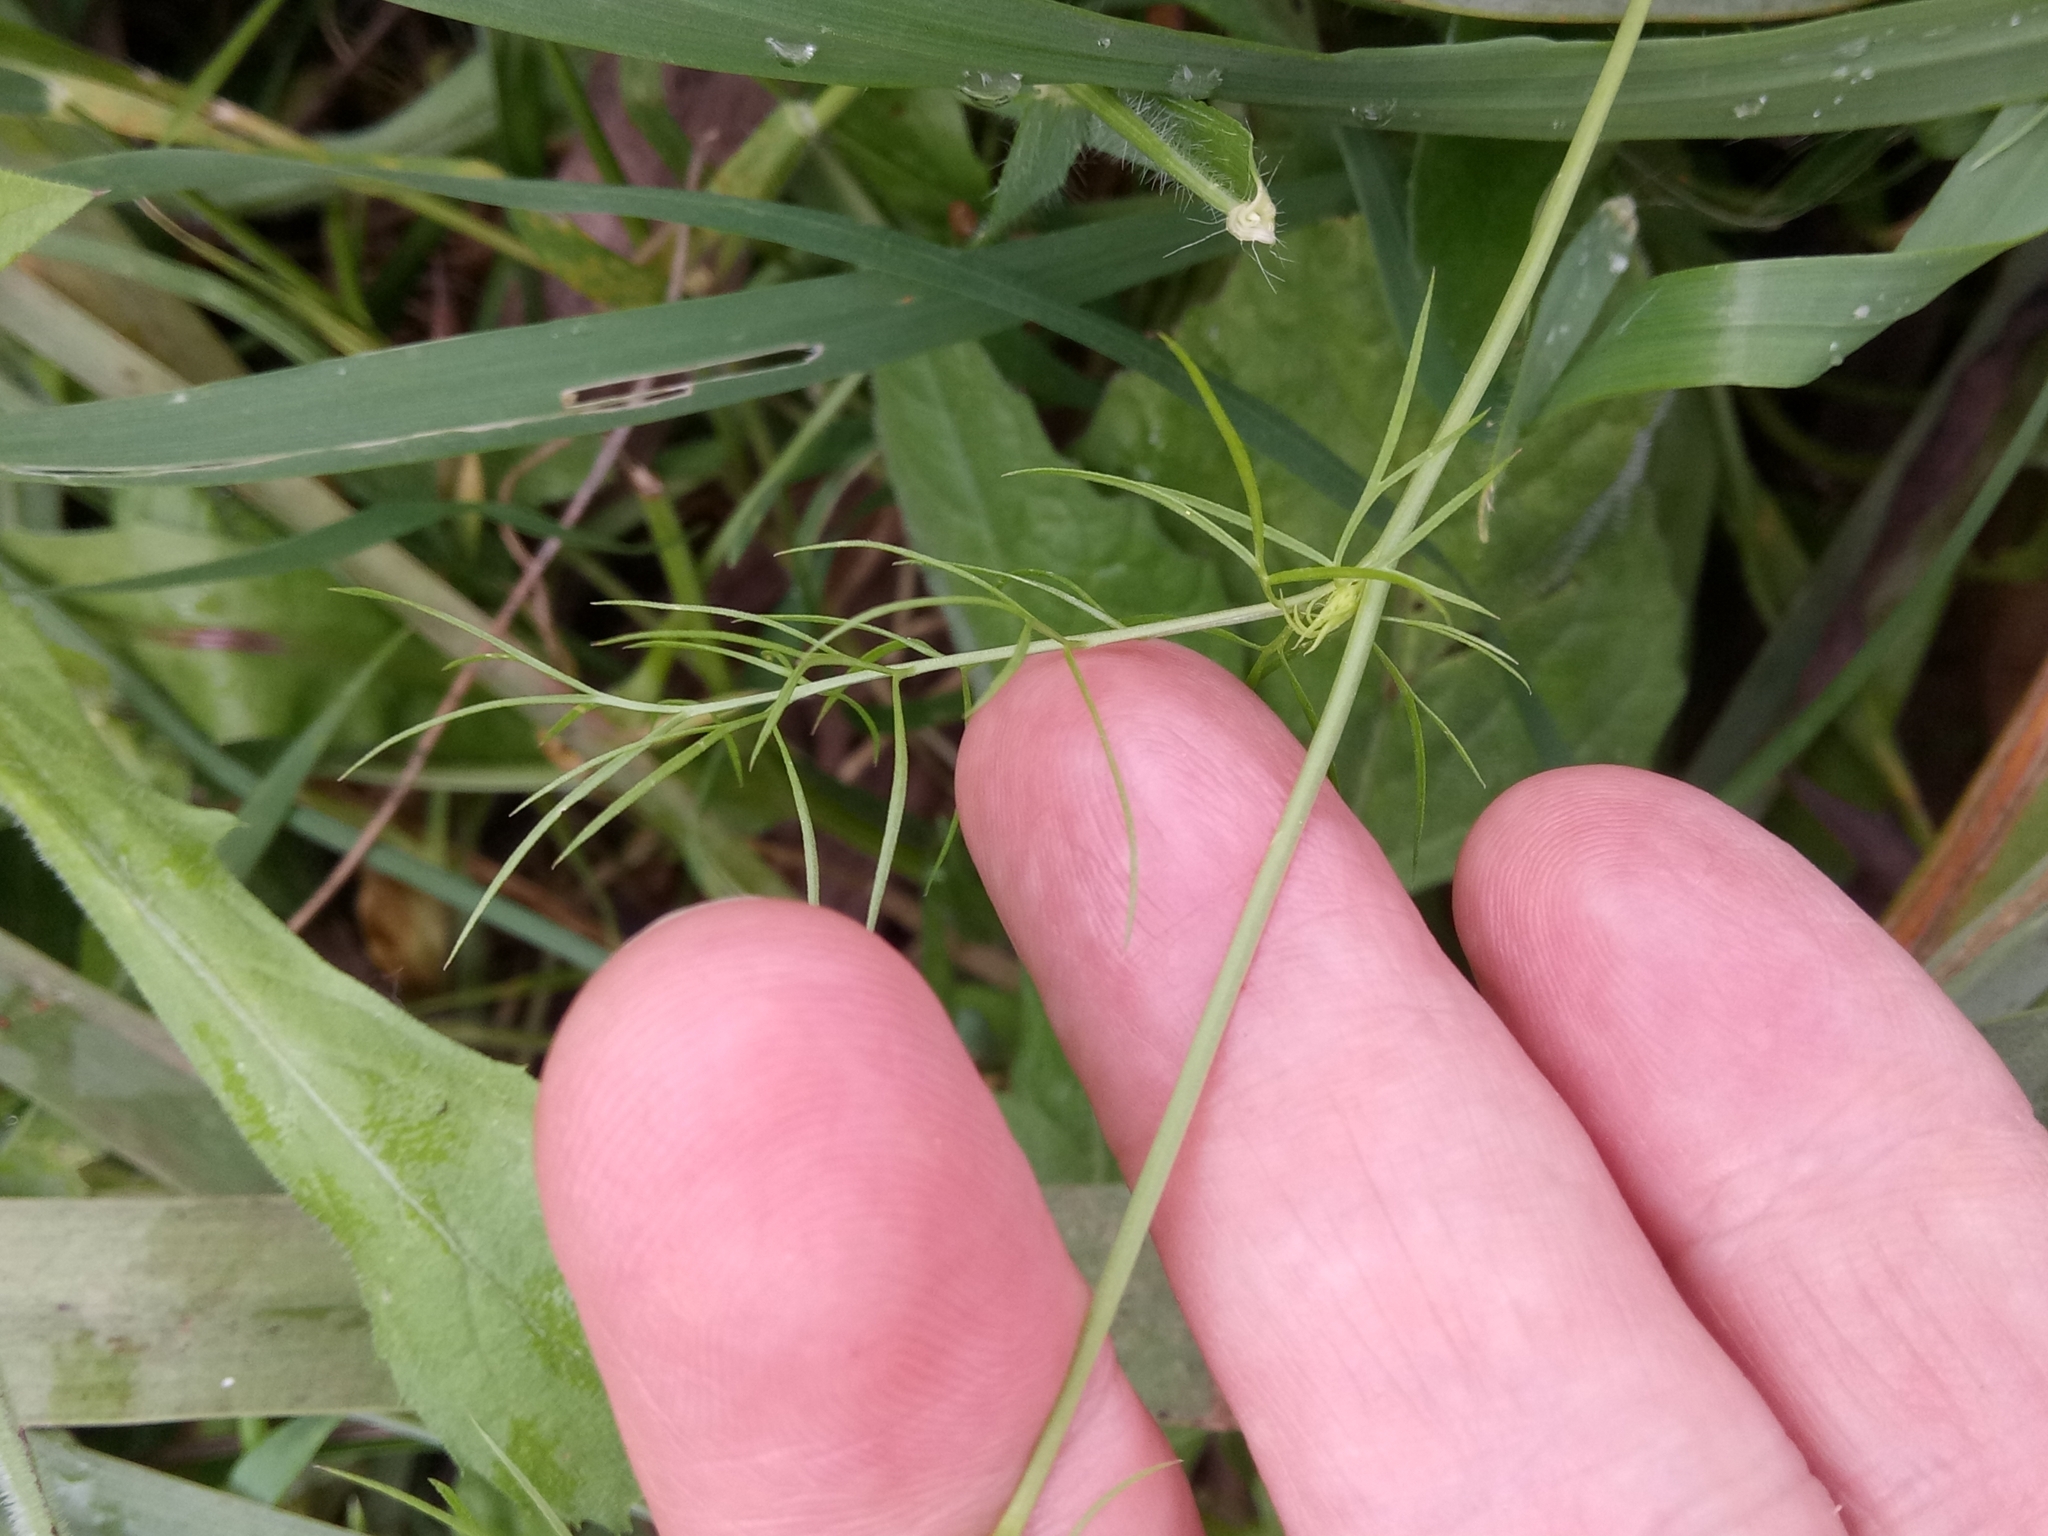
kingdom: Plantae
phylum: Tracheophyta
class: Magnoliopsida
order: Ranunculales
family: Ranunculaceae
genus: Nigella
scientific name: Nigella damascena
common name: Love-in-a-mist
